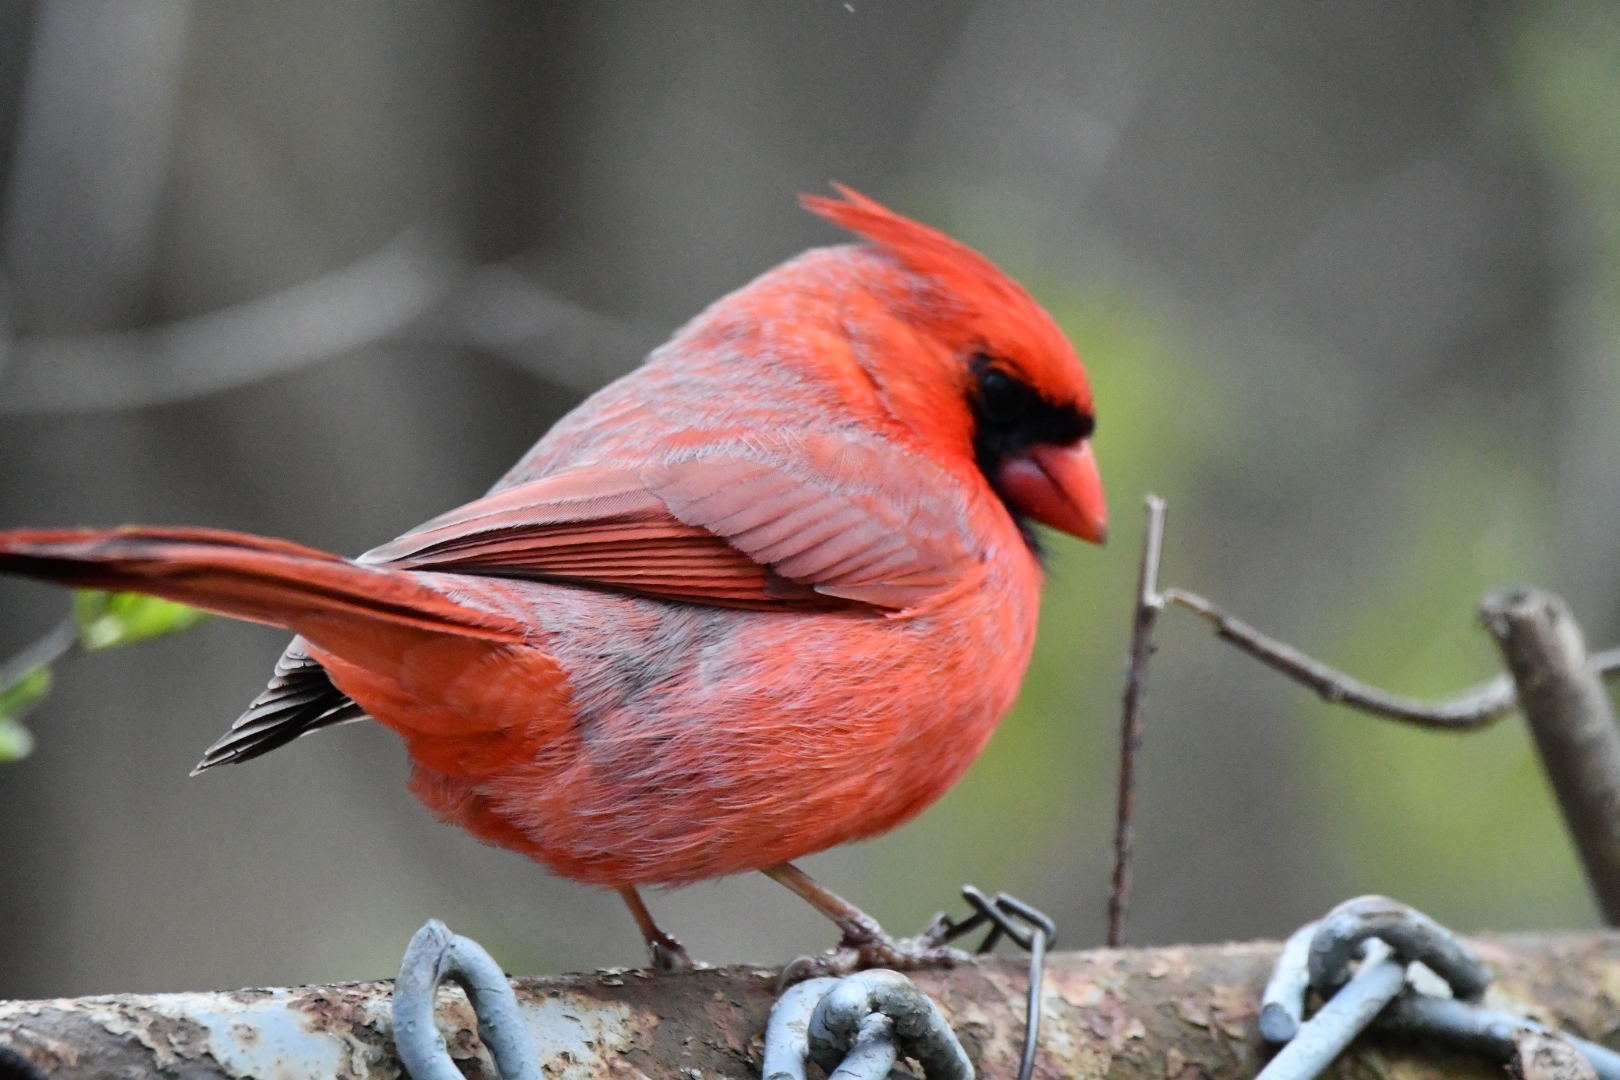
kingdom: Animalia
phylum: Chordata
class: Aves
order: Passeriformes
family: Cardinalidae
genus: Cardinalis
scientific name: Cardinalis cardinalis
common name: Northern cardinal
